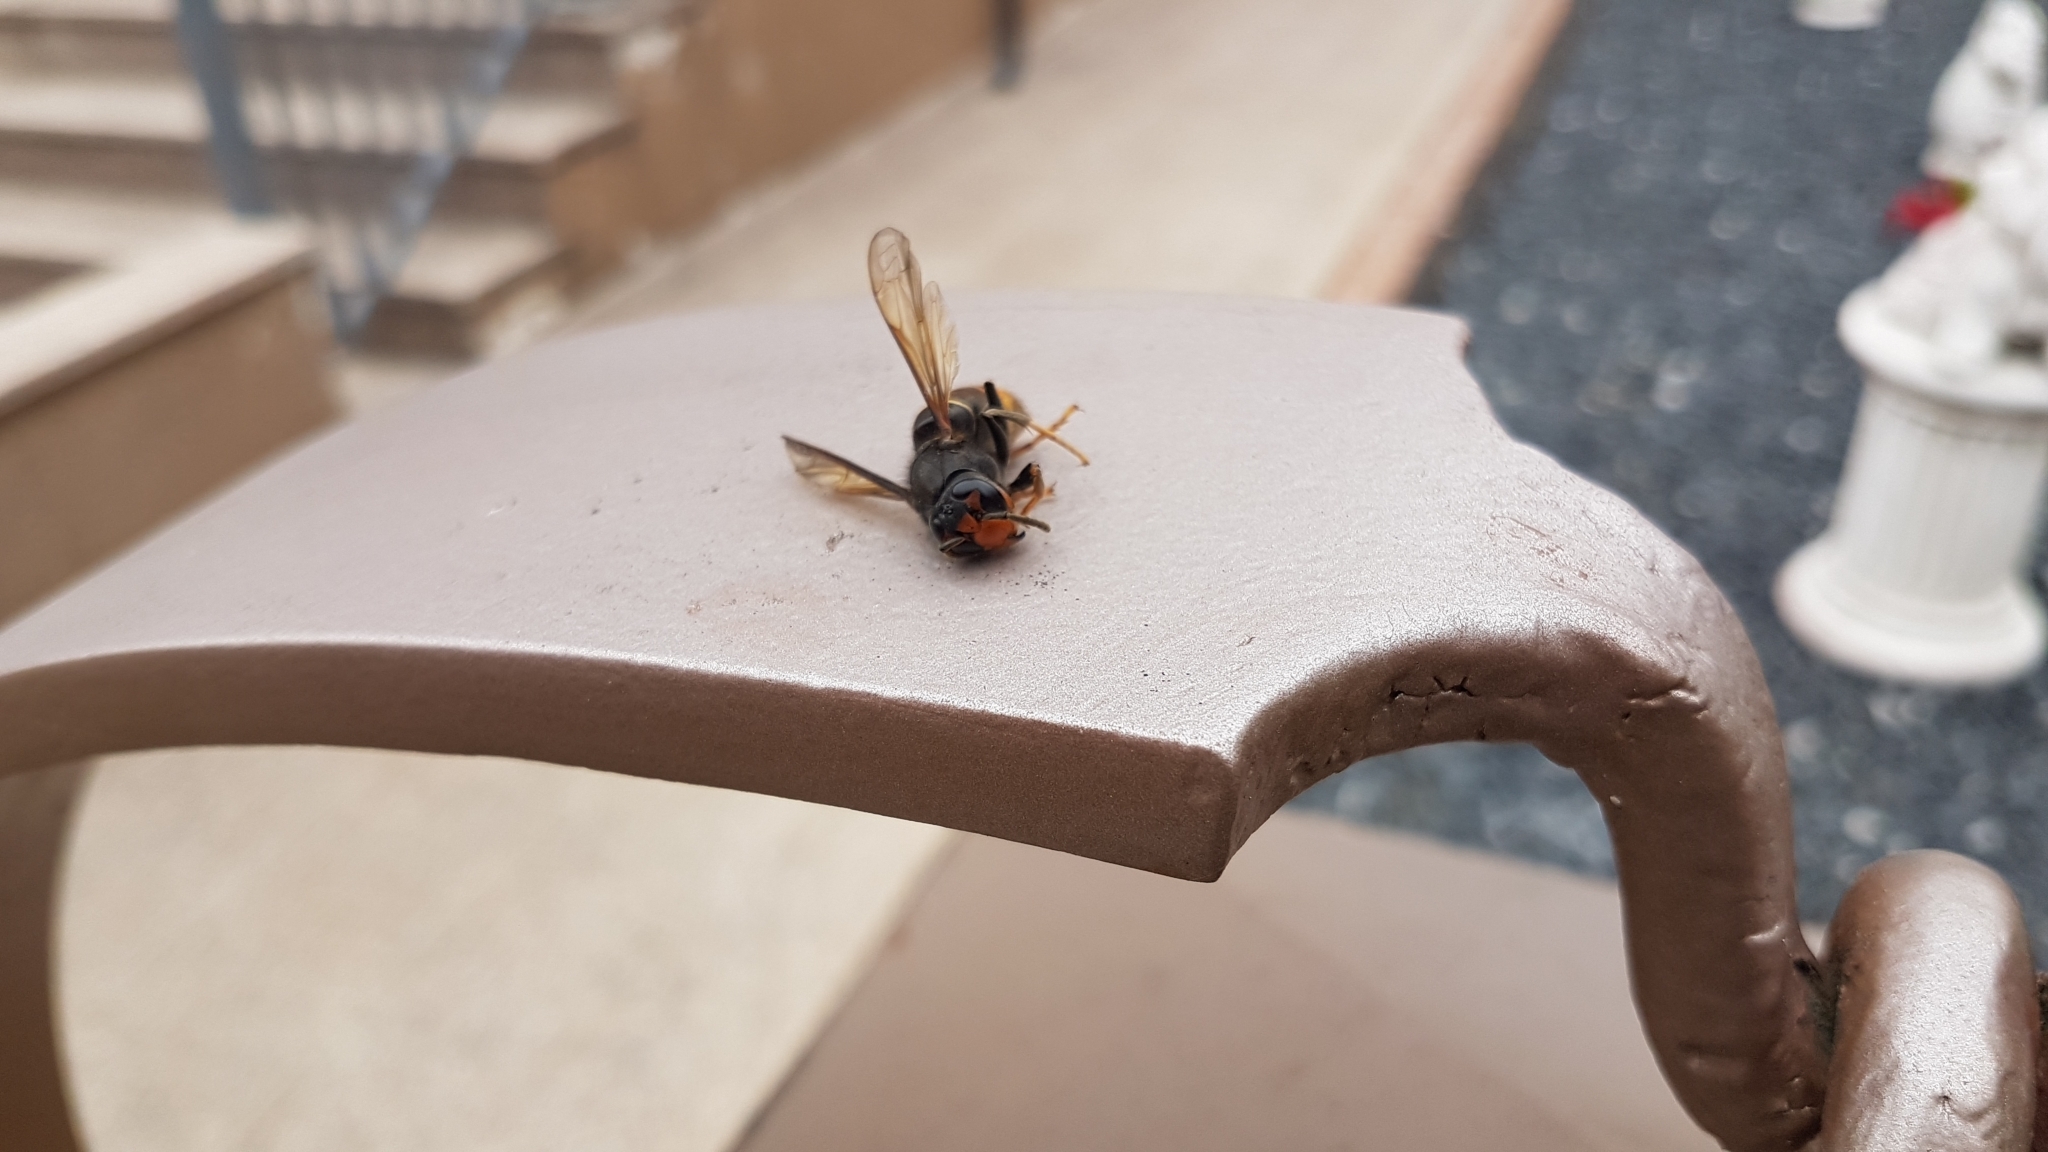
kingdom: Animalia
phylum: Arthropoda
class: Insecta
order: Hymenoptera
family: Vespidae
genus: Vespa
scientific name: Vespa velutina
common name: Asian hornet
